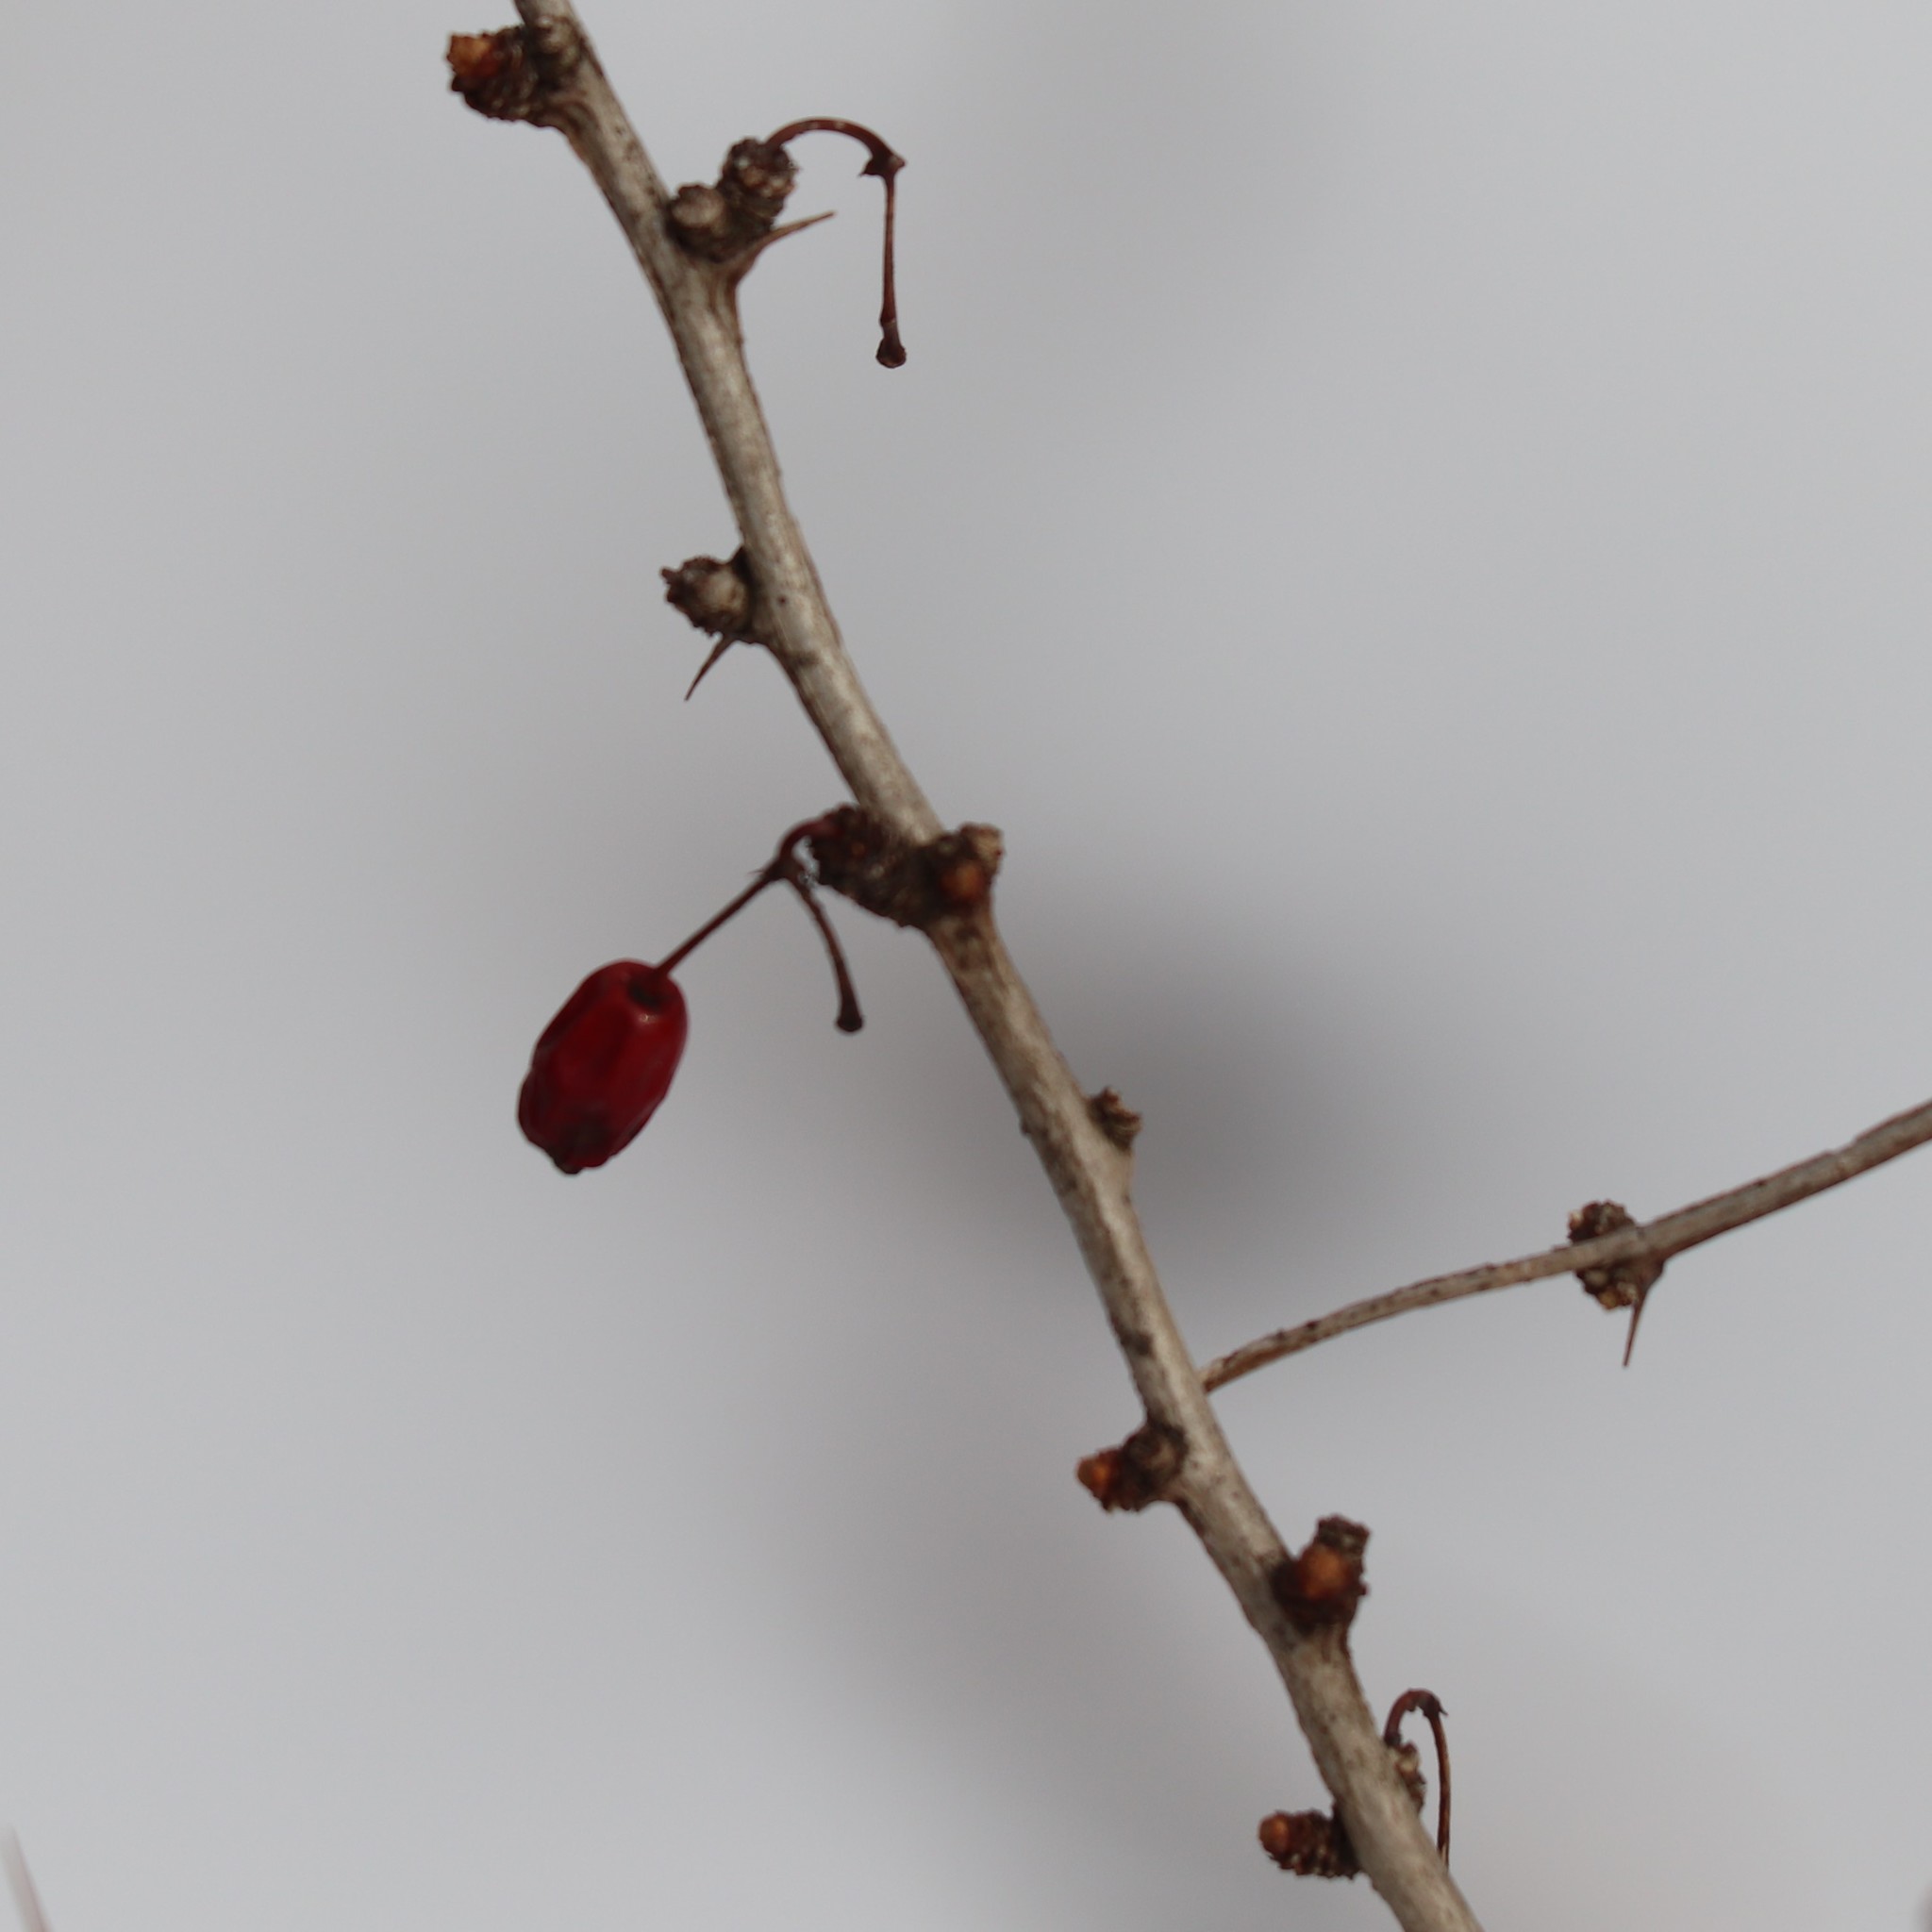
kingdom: Plantae
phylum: Tracheophyta
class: Magnoliopsida
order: Ranunculales
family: Berberidaceae
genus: Berberis
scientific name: Berberis thunbergii
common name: Japanese barberry
